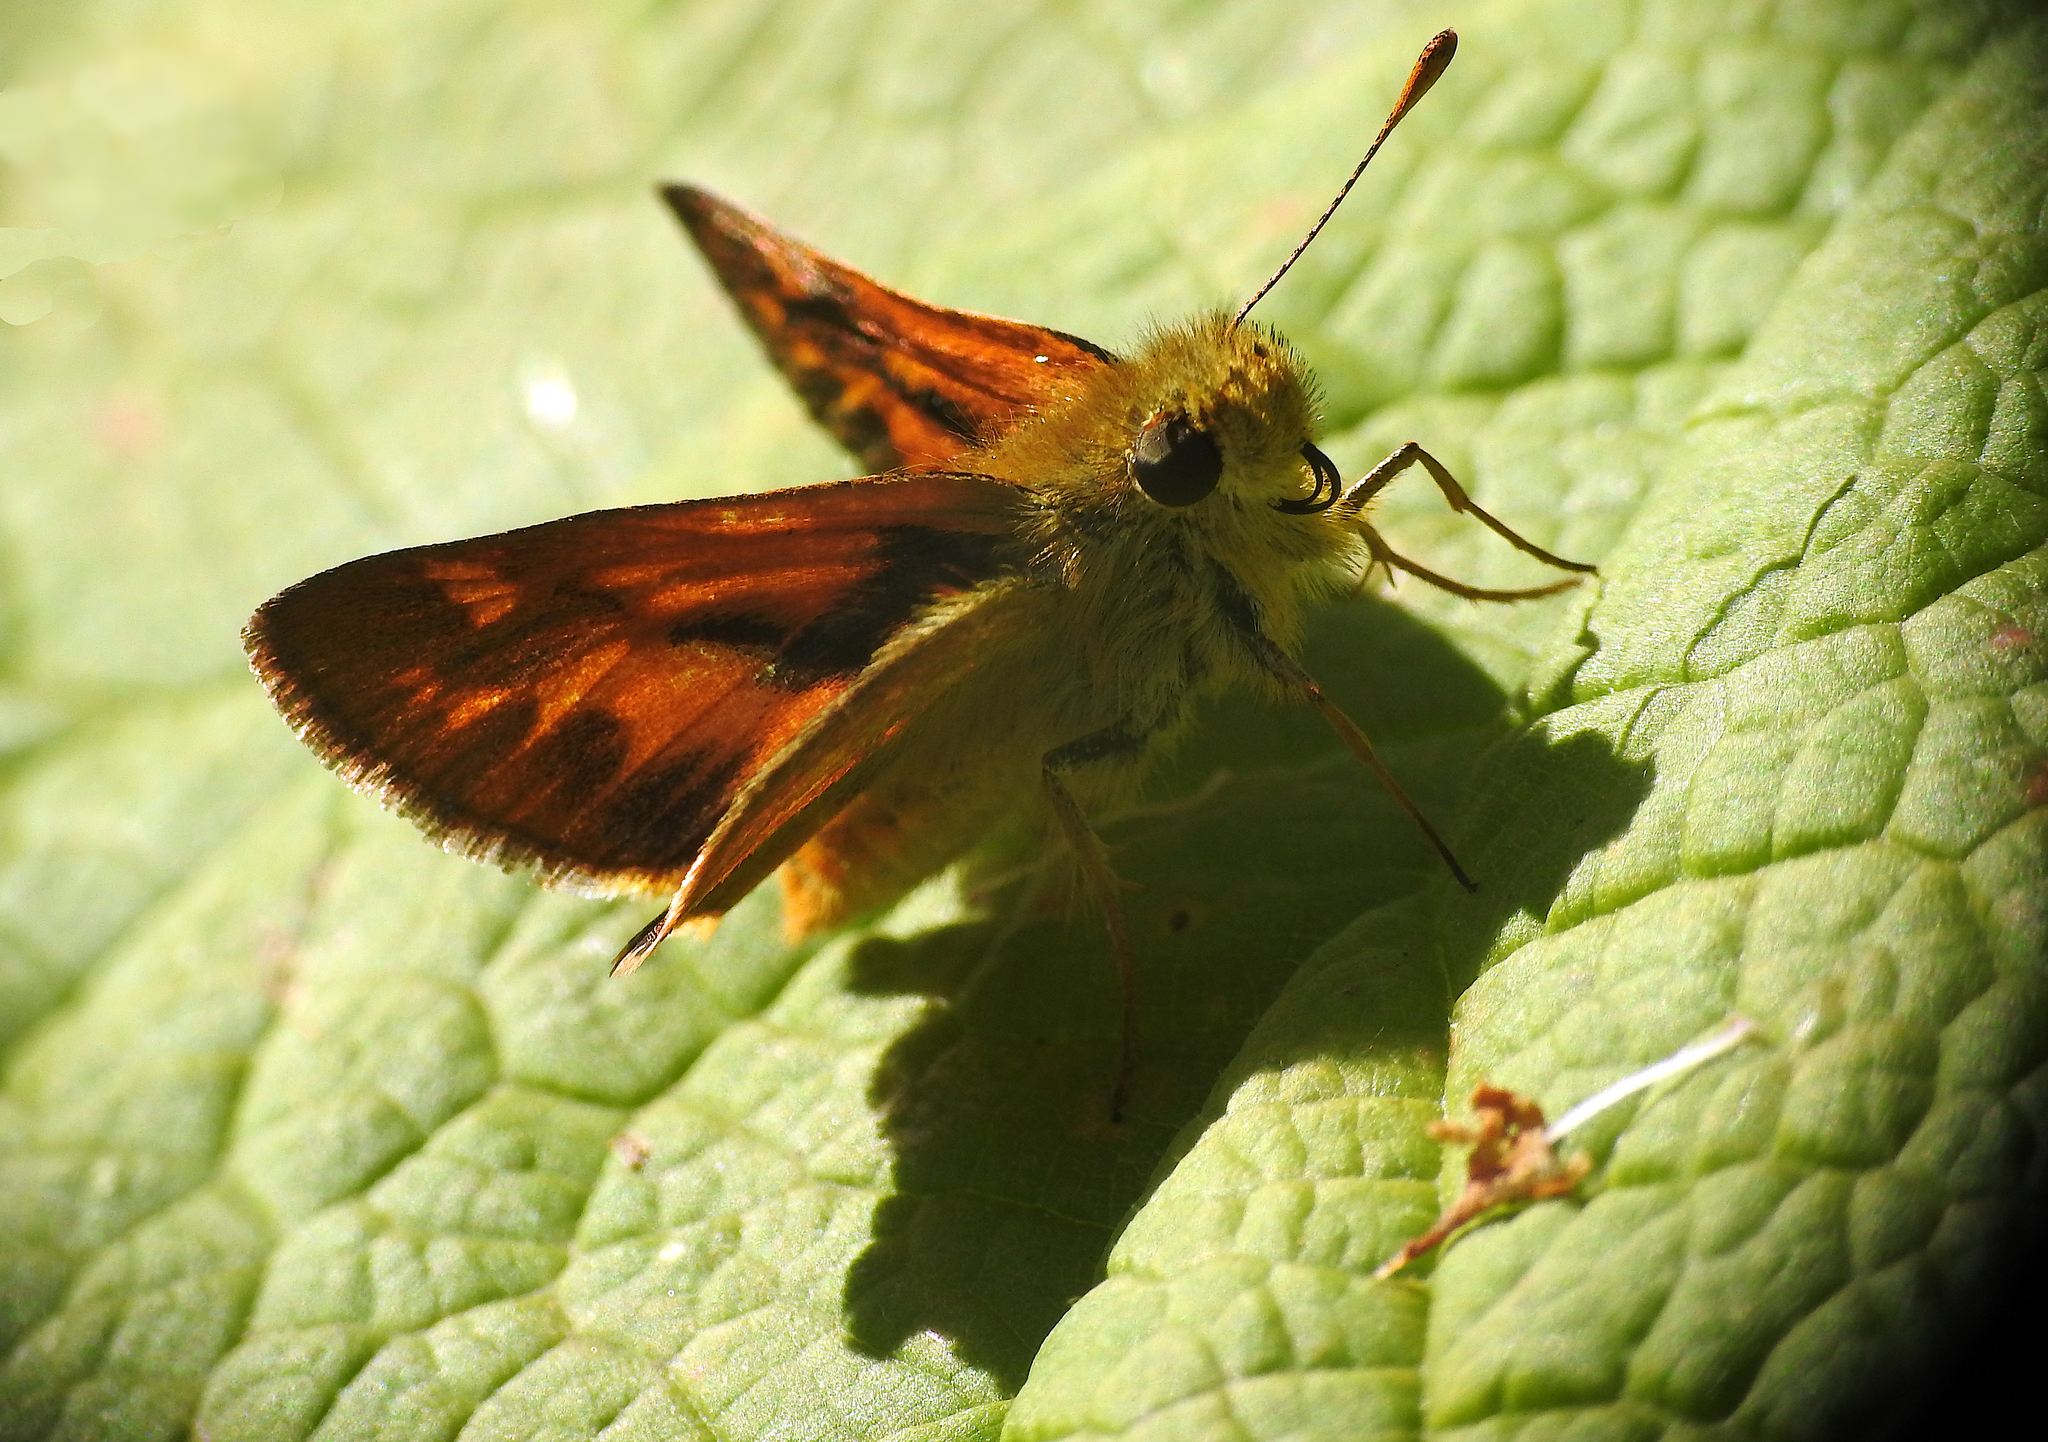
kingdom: Animalia
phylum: Arthropoda
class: Insecta
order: Lepidoptera
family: Hesperiidae
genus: Ochlodes
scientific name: Ochlodes sylvanoides
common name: Woodland skipper
